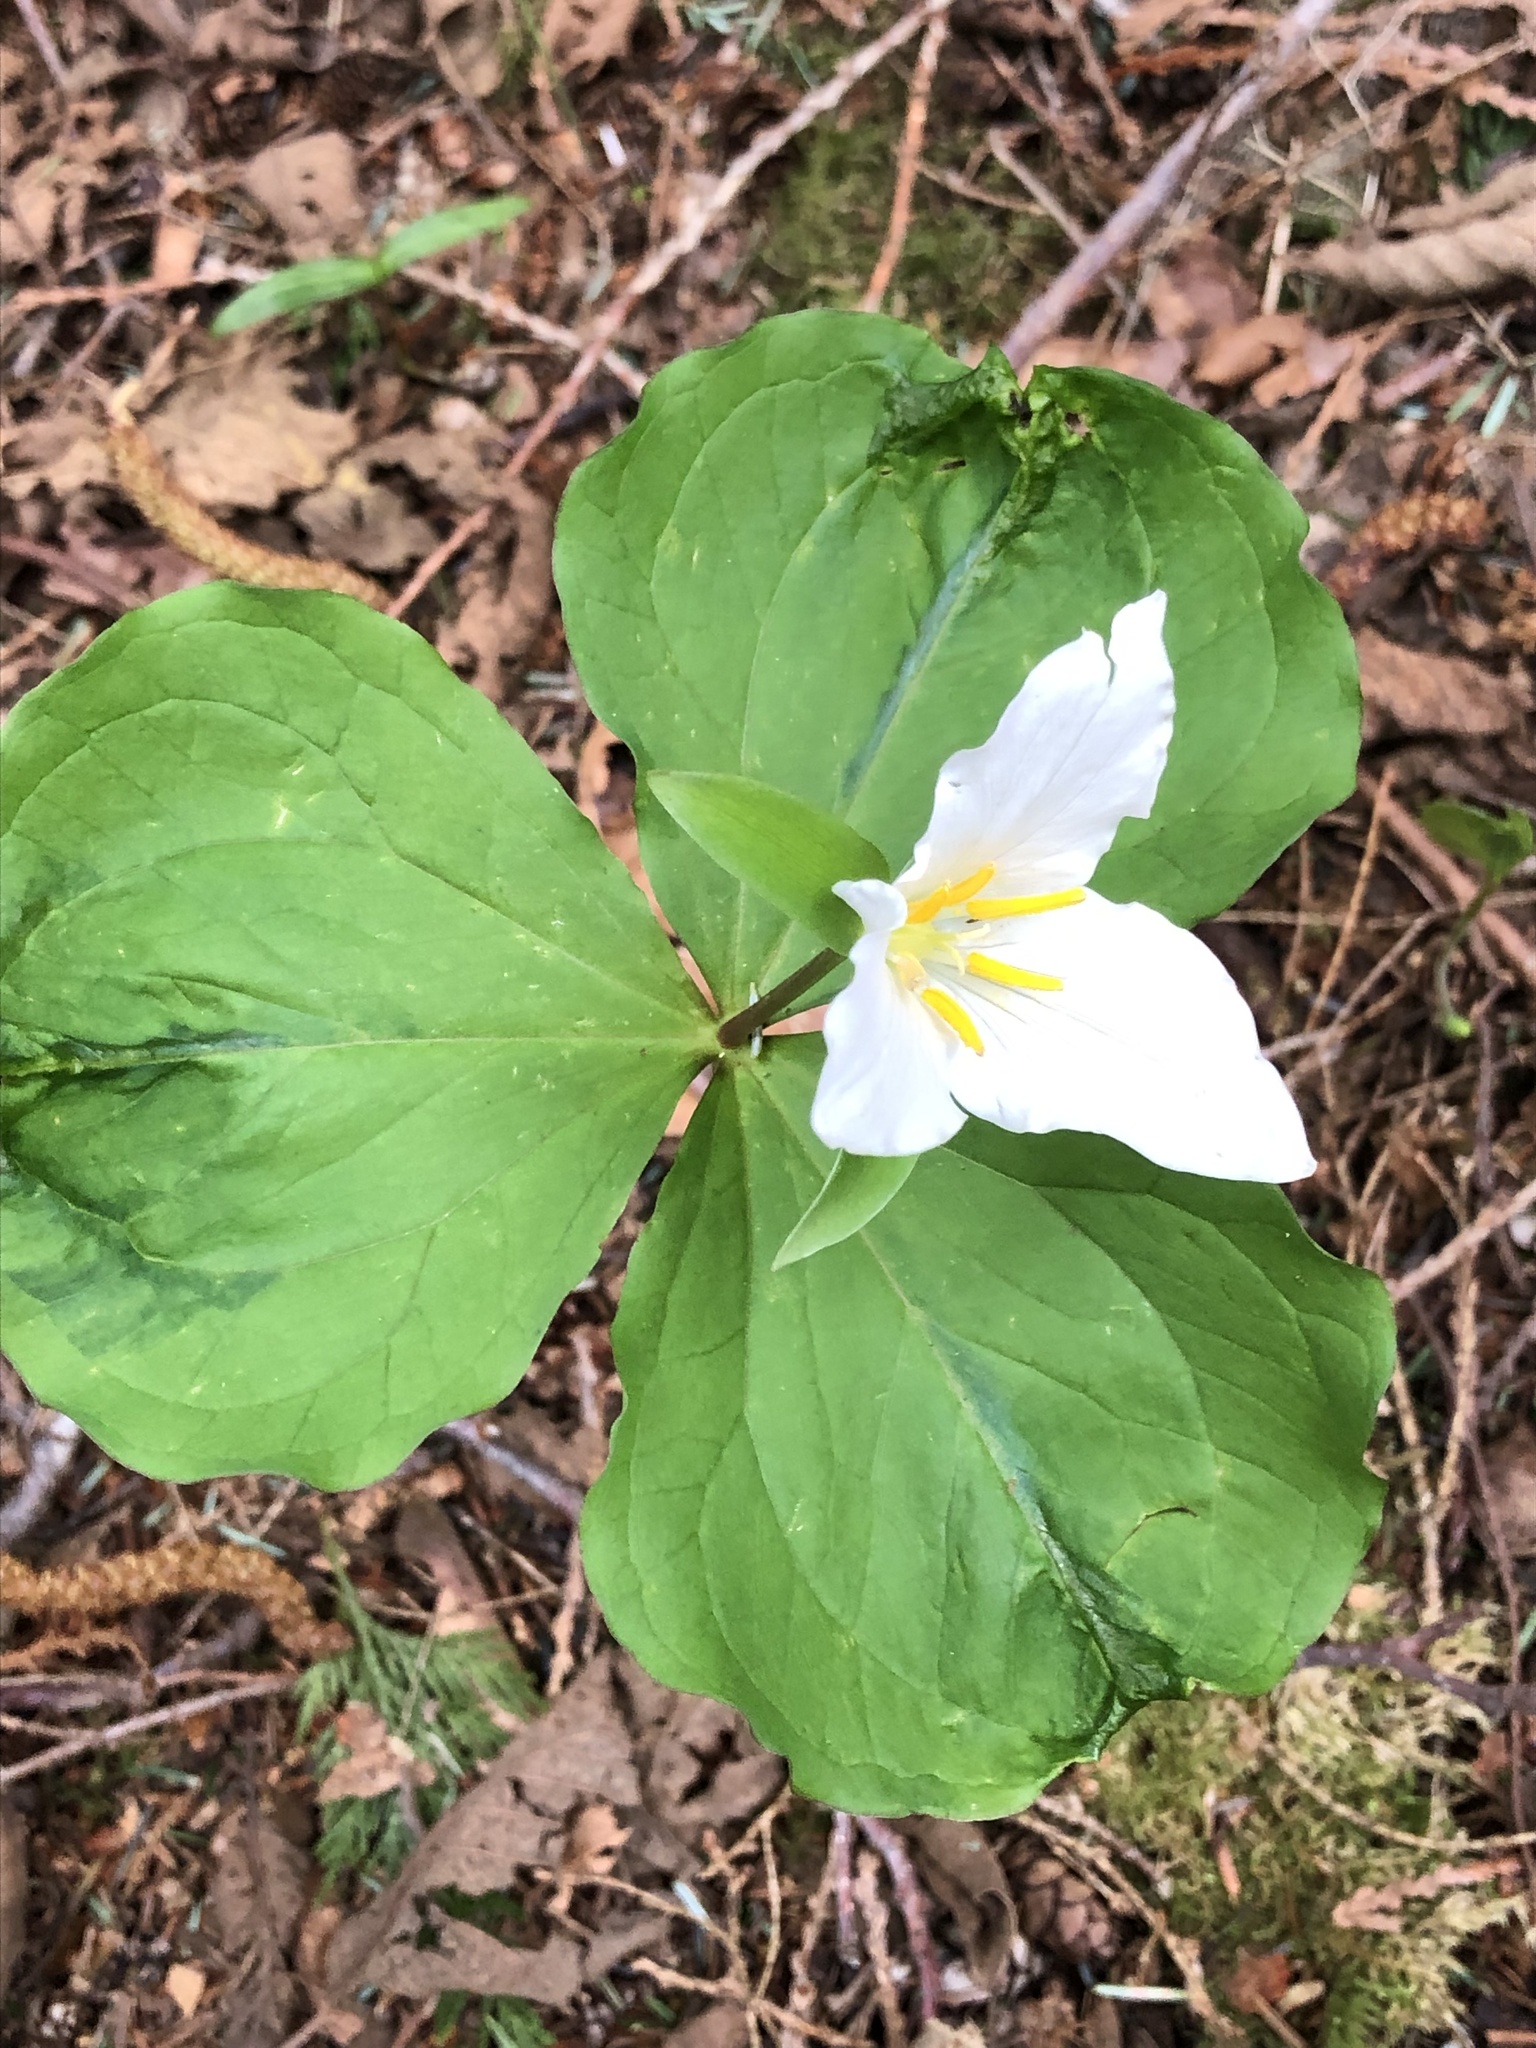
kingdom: Plantae
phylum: Tracheophyta
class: Liliopsida
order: Liliales
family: Melanthiaceae
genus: Trillium
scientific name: Trillium ovatum
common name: Pacific trillium
